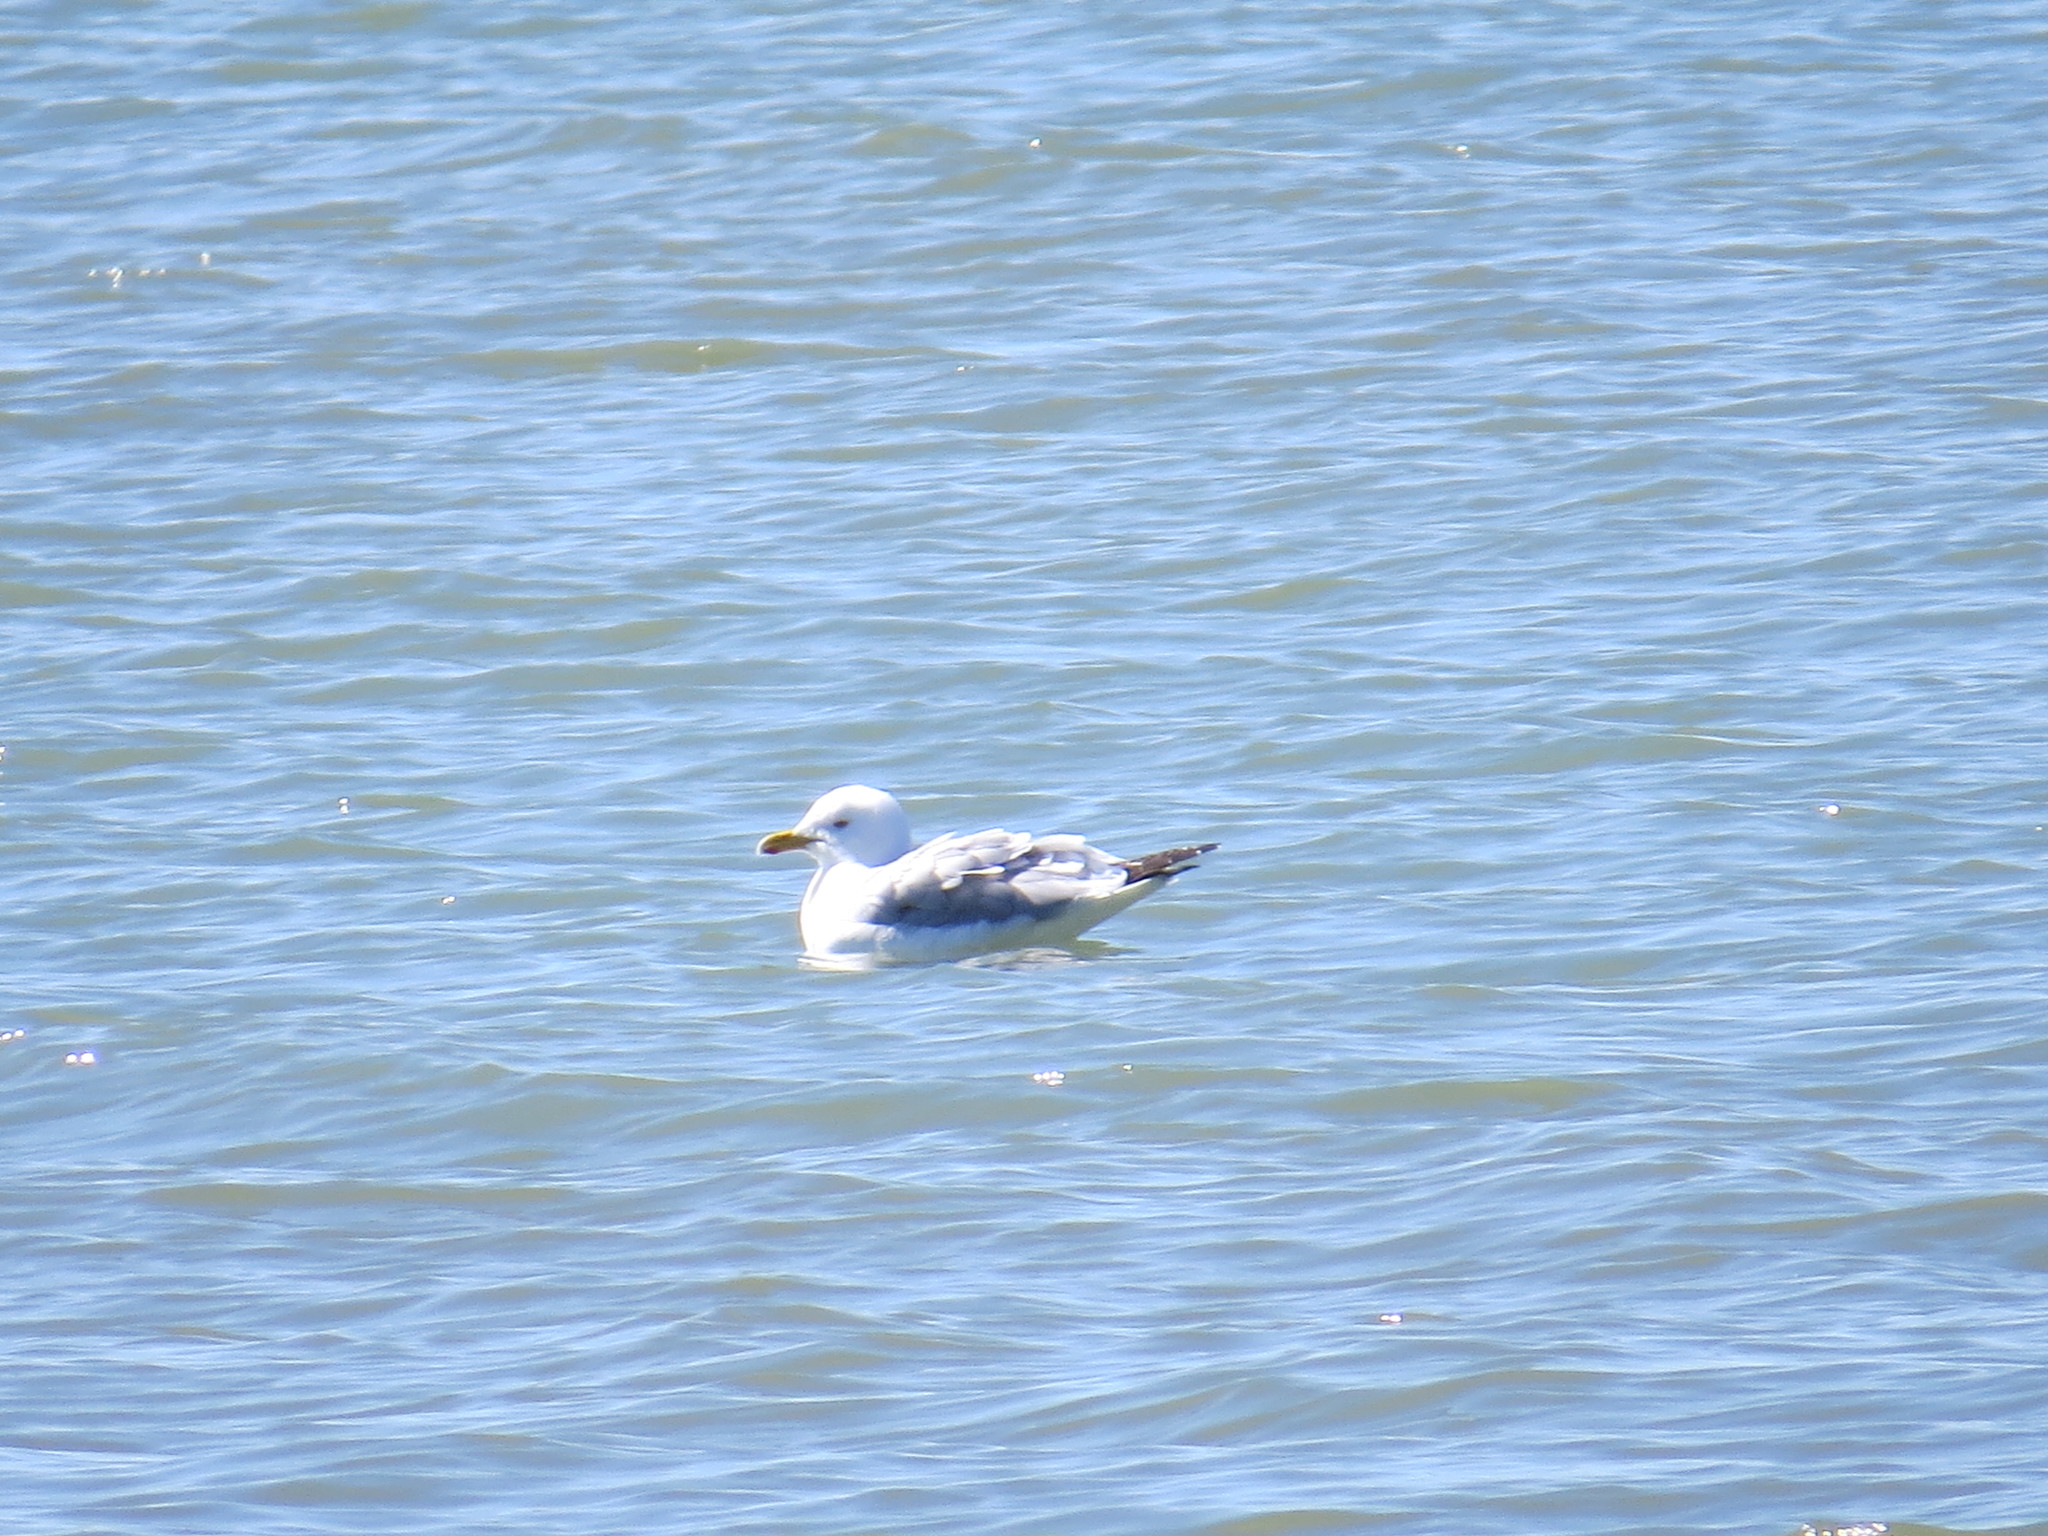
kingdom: Animalia
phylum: Chordata
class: Aves
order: Charadriiformes
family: Laridae
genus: Larus
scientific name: Larus argentatus
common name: Herring gull
